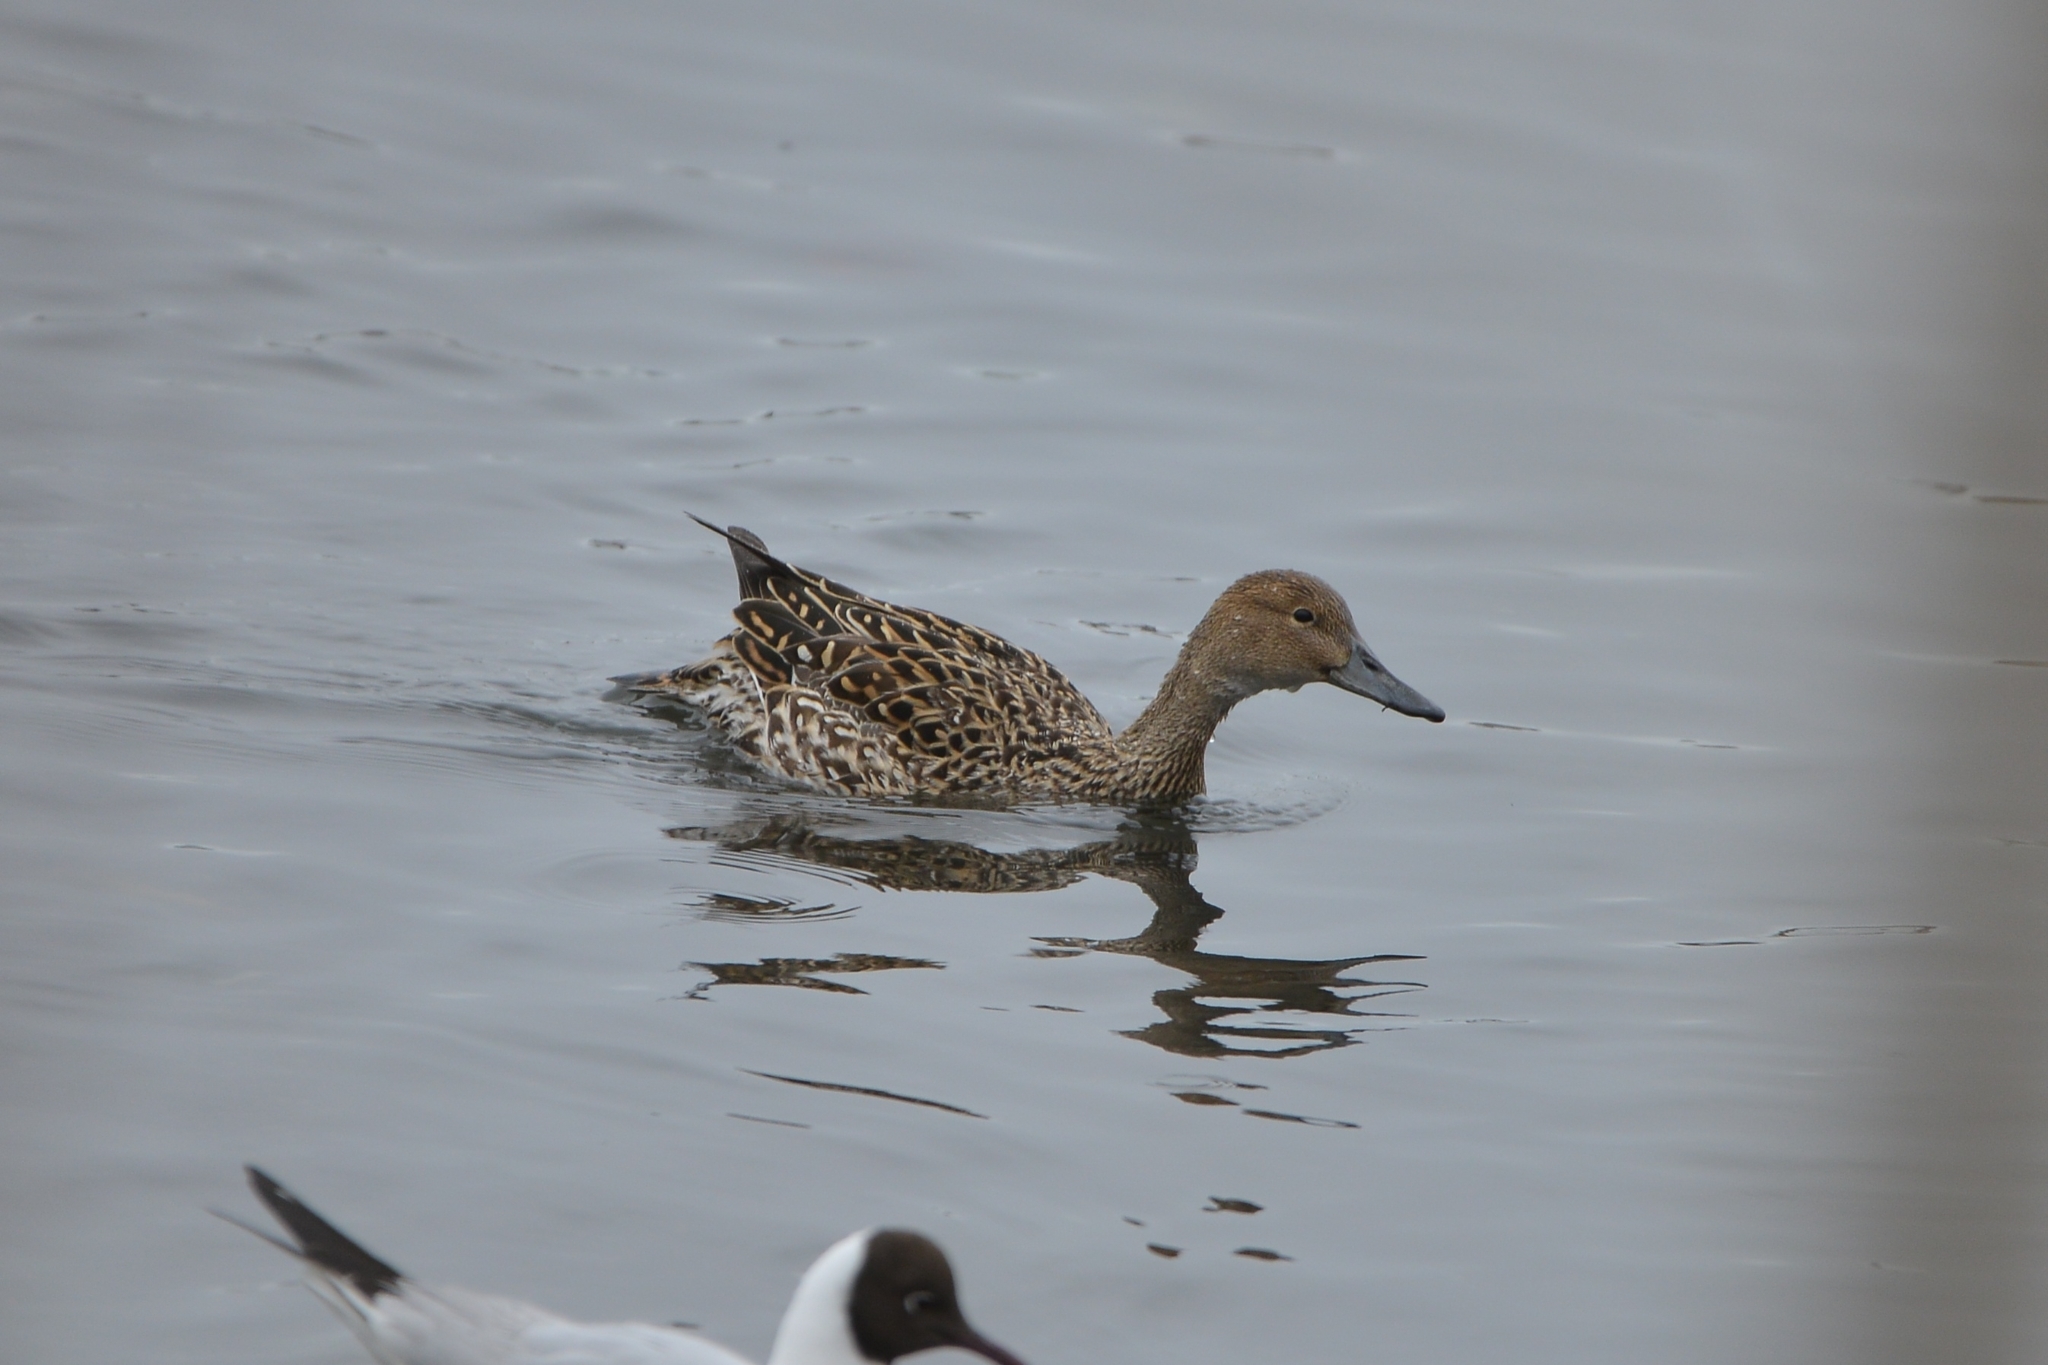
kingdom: Animalia
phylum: Chordata
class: Aves
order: Anseriformes
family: Anatidae
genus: Anas
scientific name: Anas acuta
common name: Northern pintail
